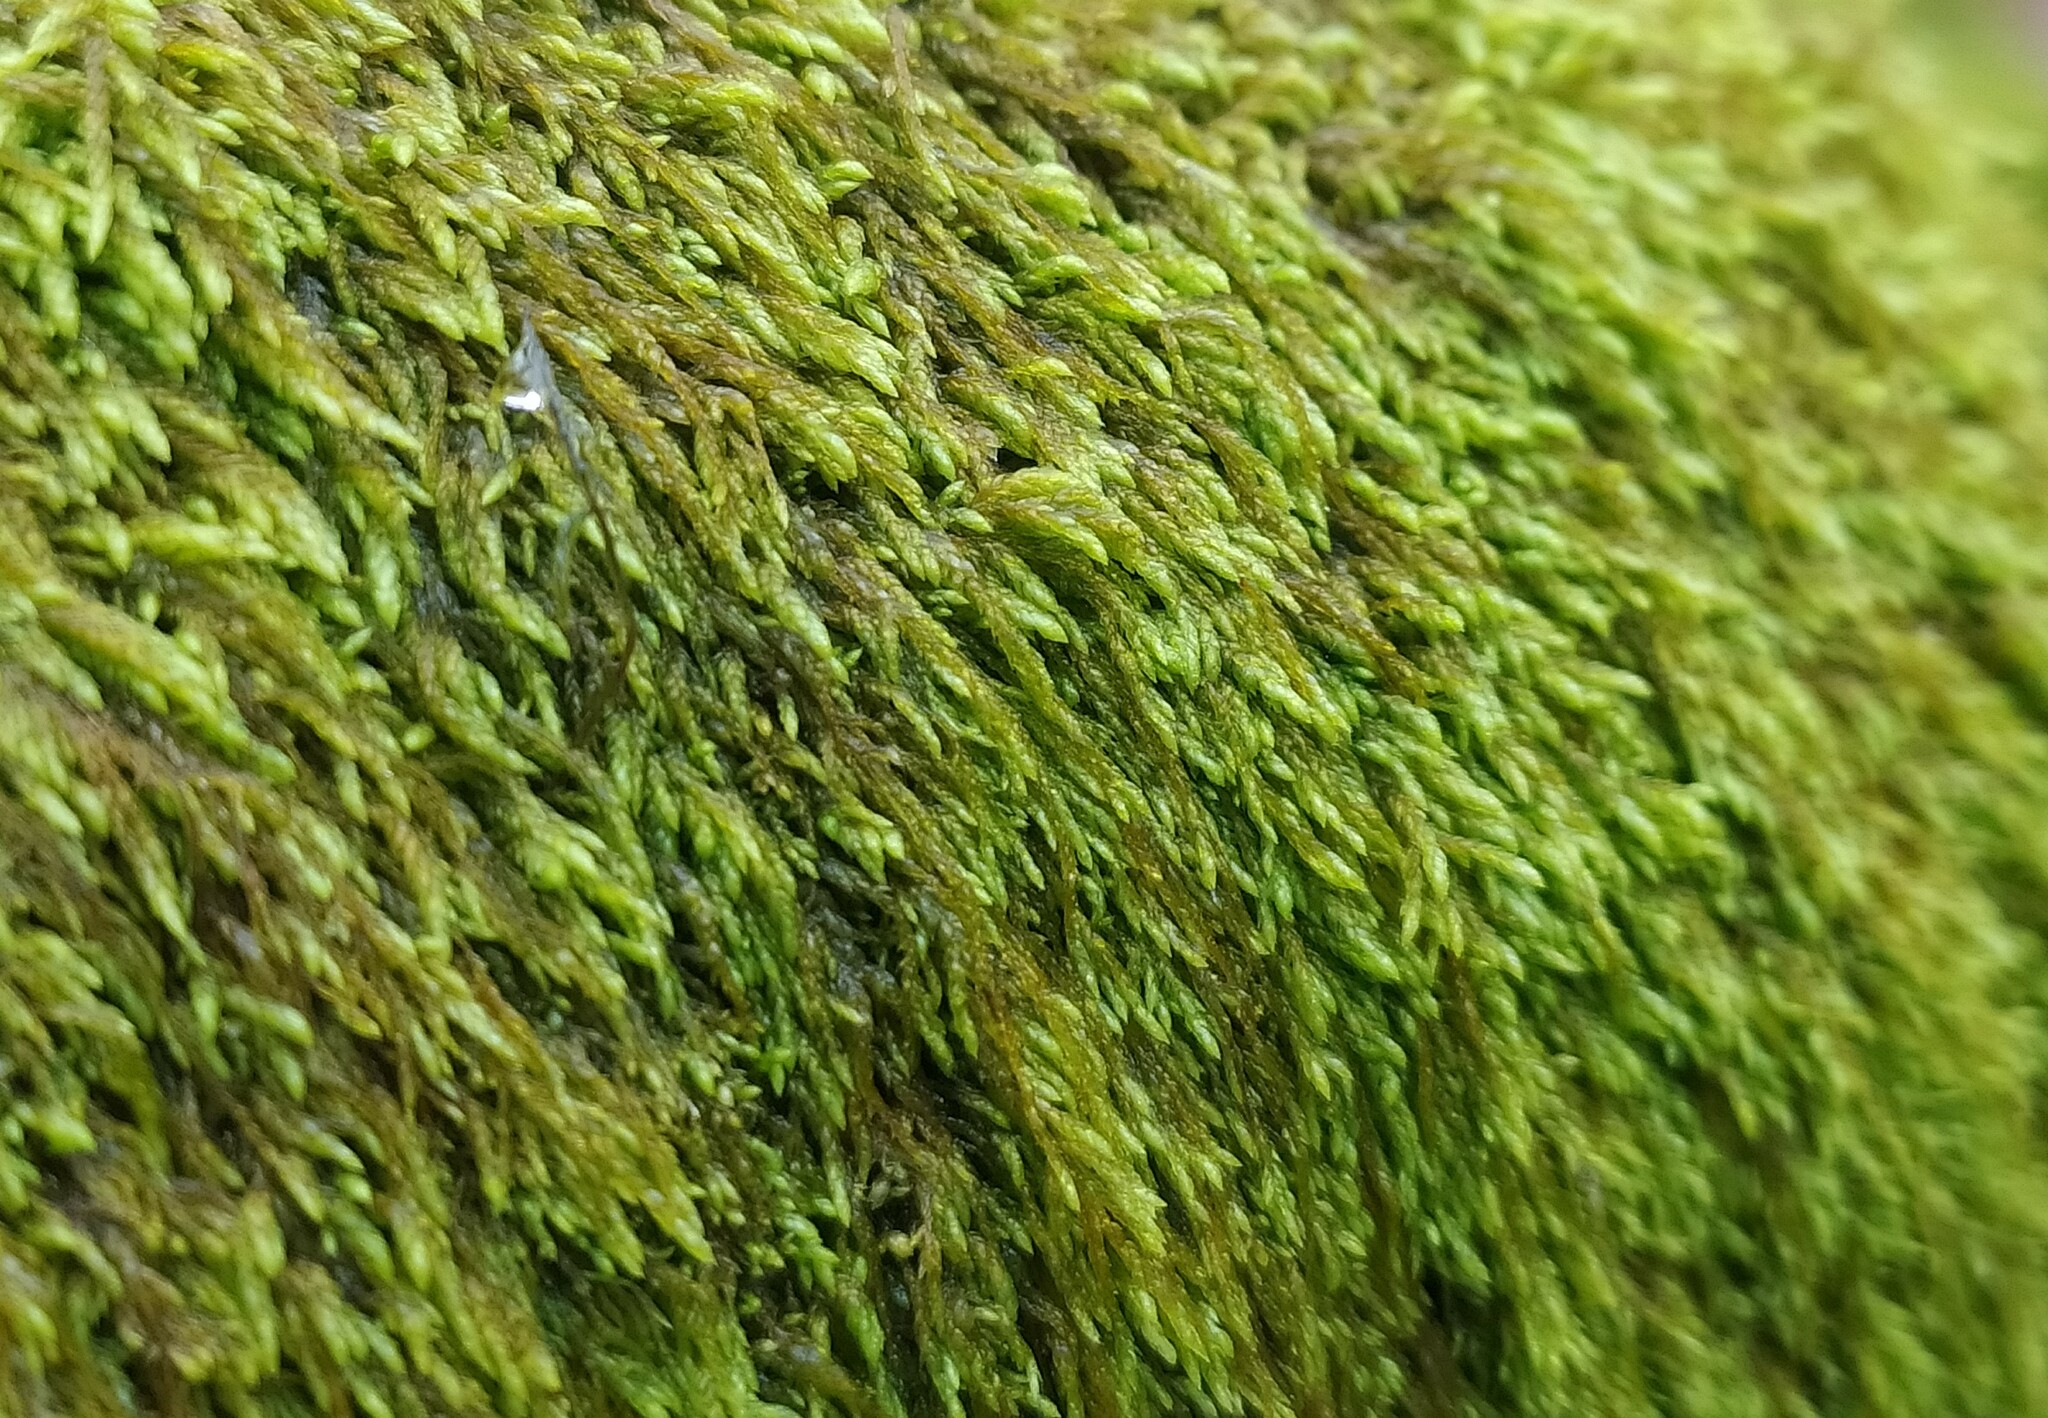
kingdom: Plantae
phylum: Bryophyta
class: Bryopsida
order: Hypnales
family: Pterigynandraceae
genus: Pterigynandrum
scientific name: Pterigynandrum filiforme
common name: Capillary wing moss
